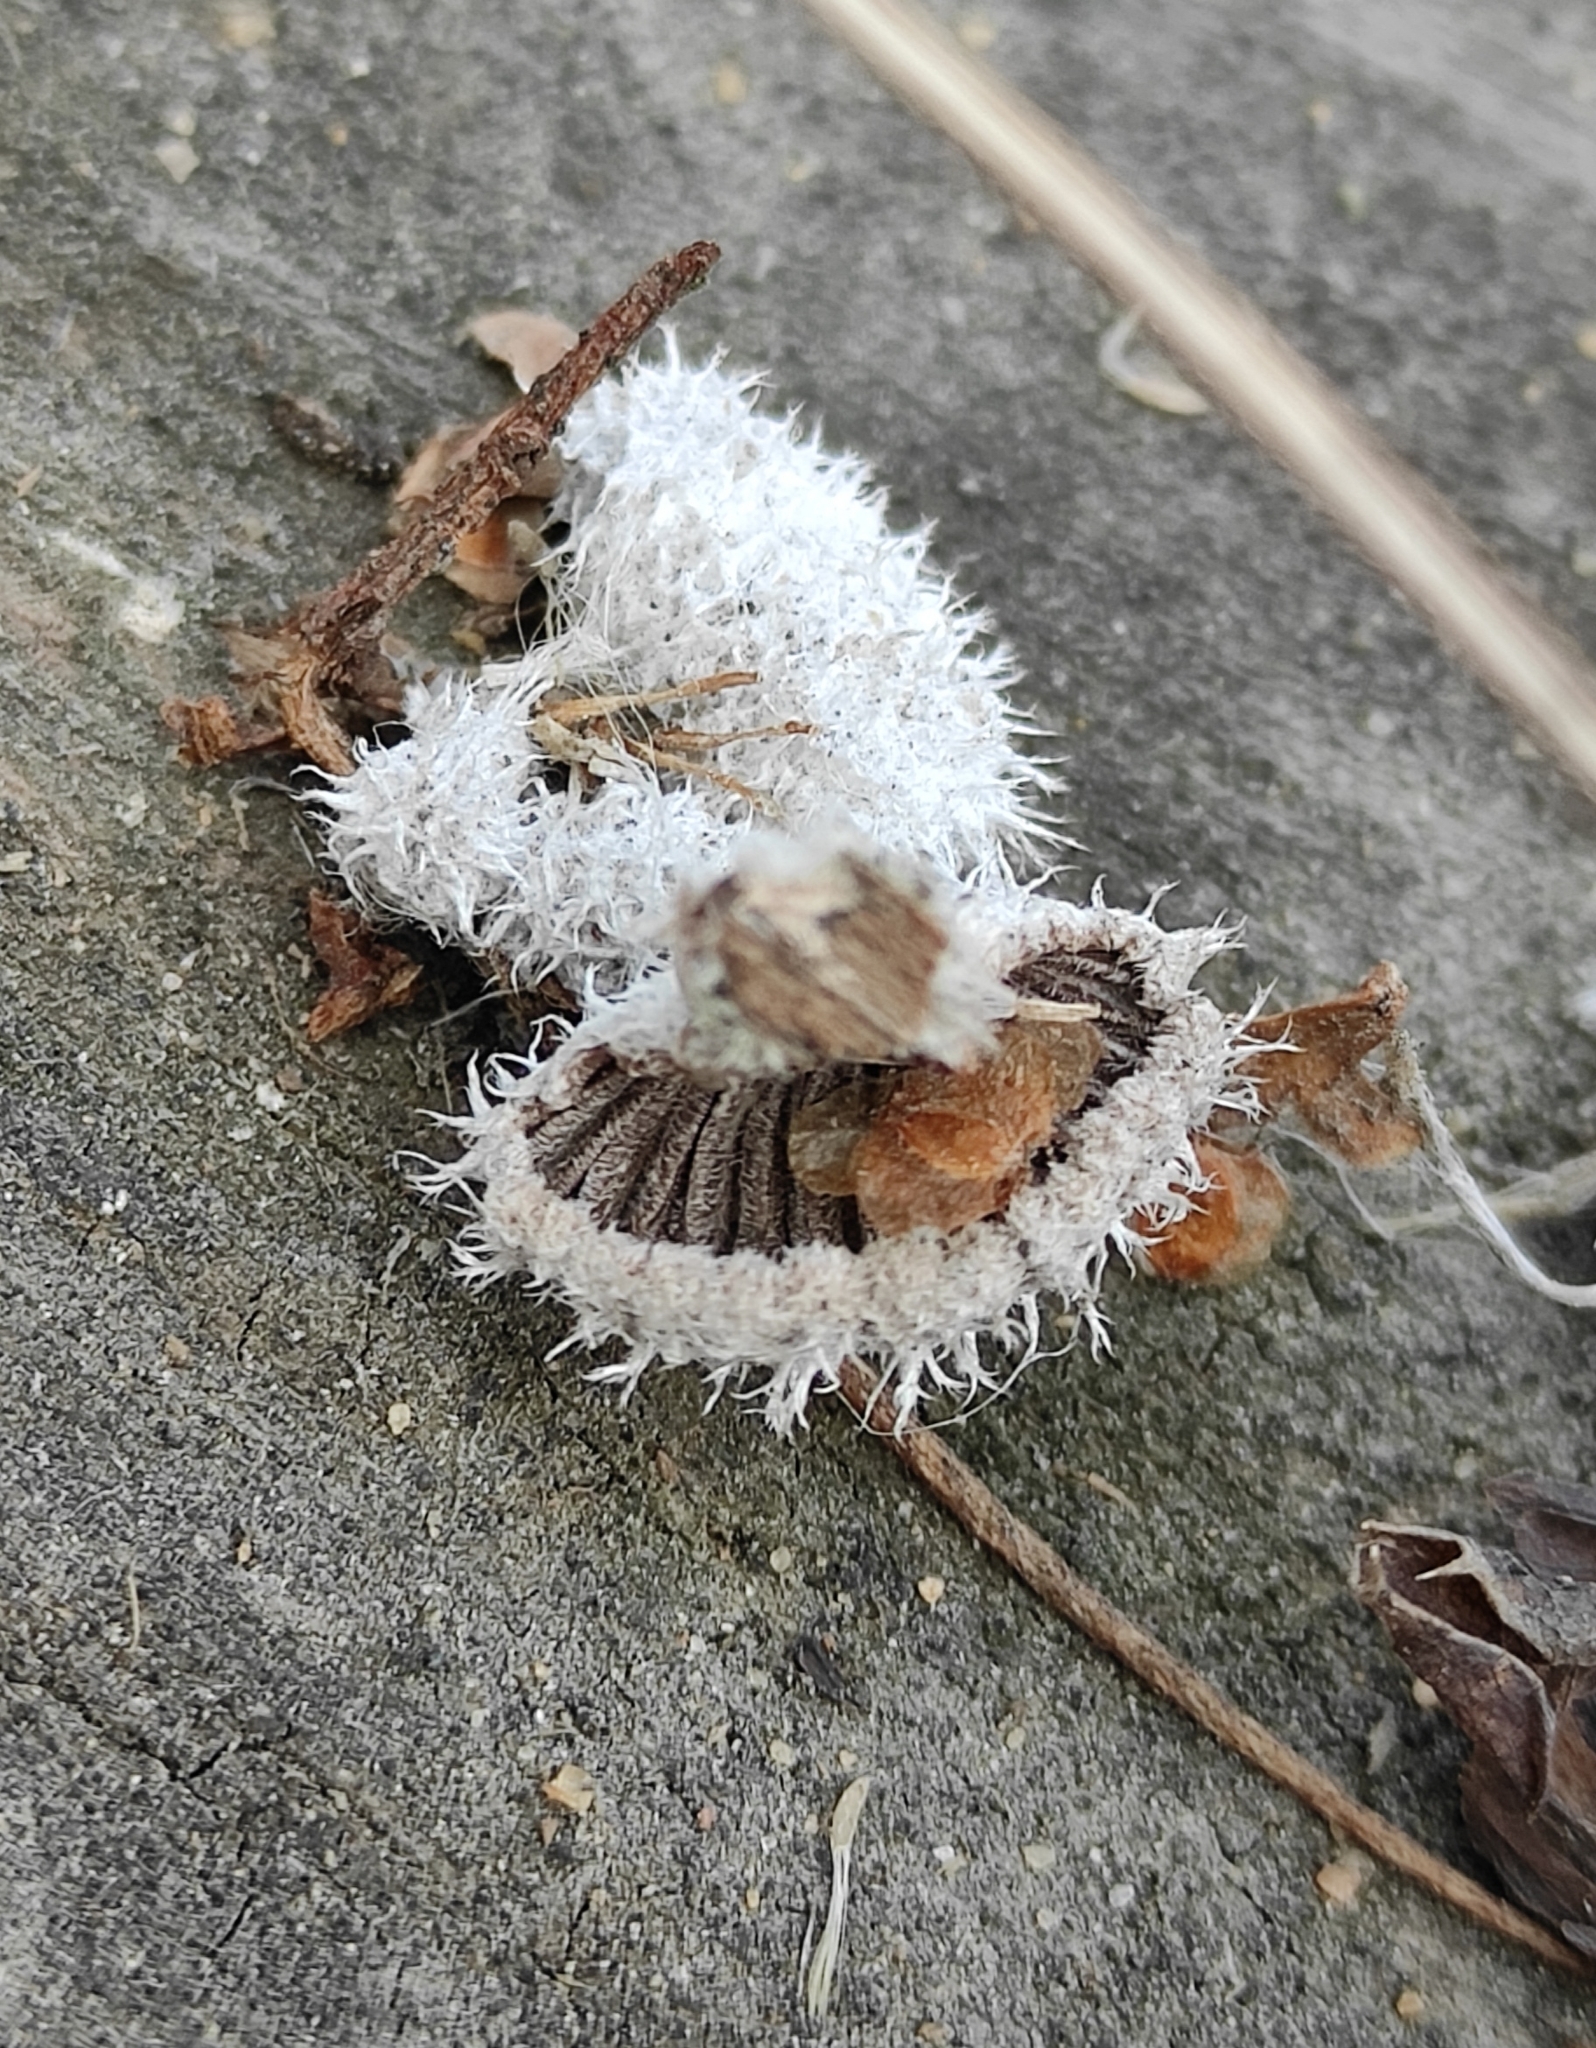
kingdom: Fungi
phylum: Basidiomycota
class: Agaricomycetes
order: Agaricales
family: Schizophyllaceae
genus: Schizophyllum
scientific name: Schizophyllum commune
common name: Common porecrust
